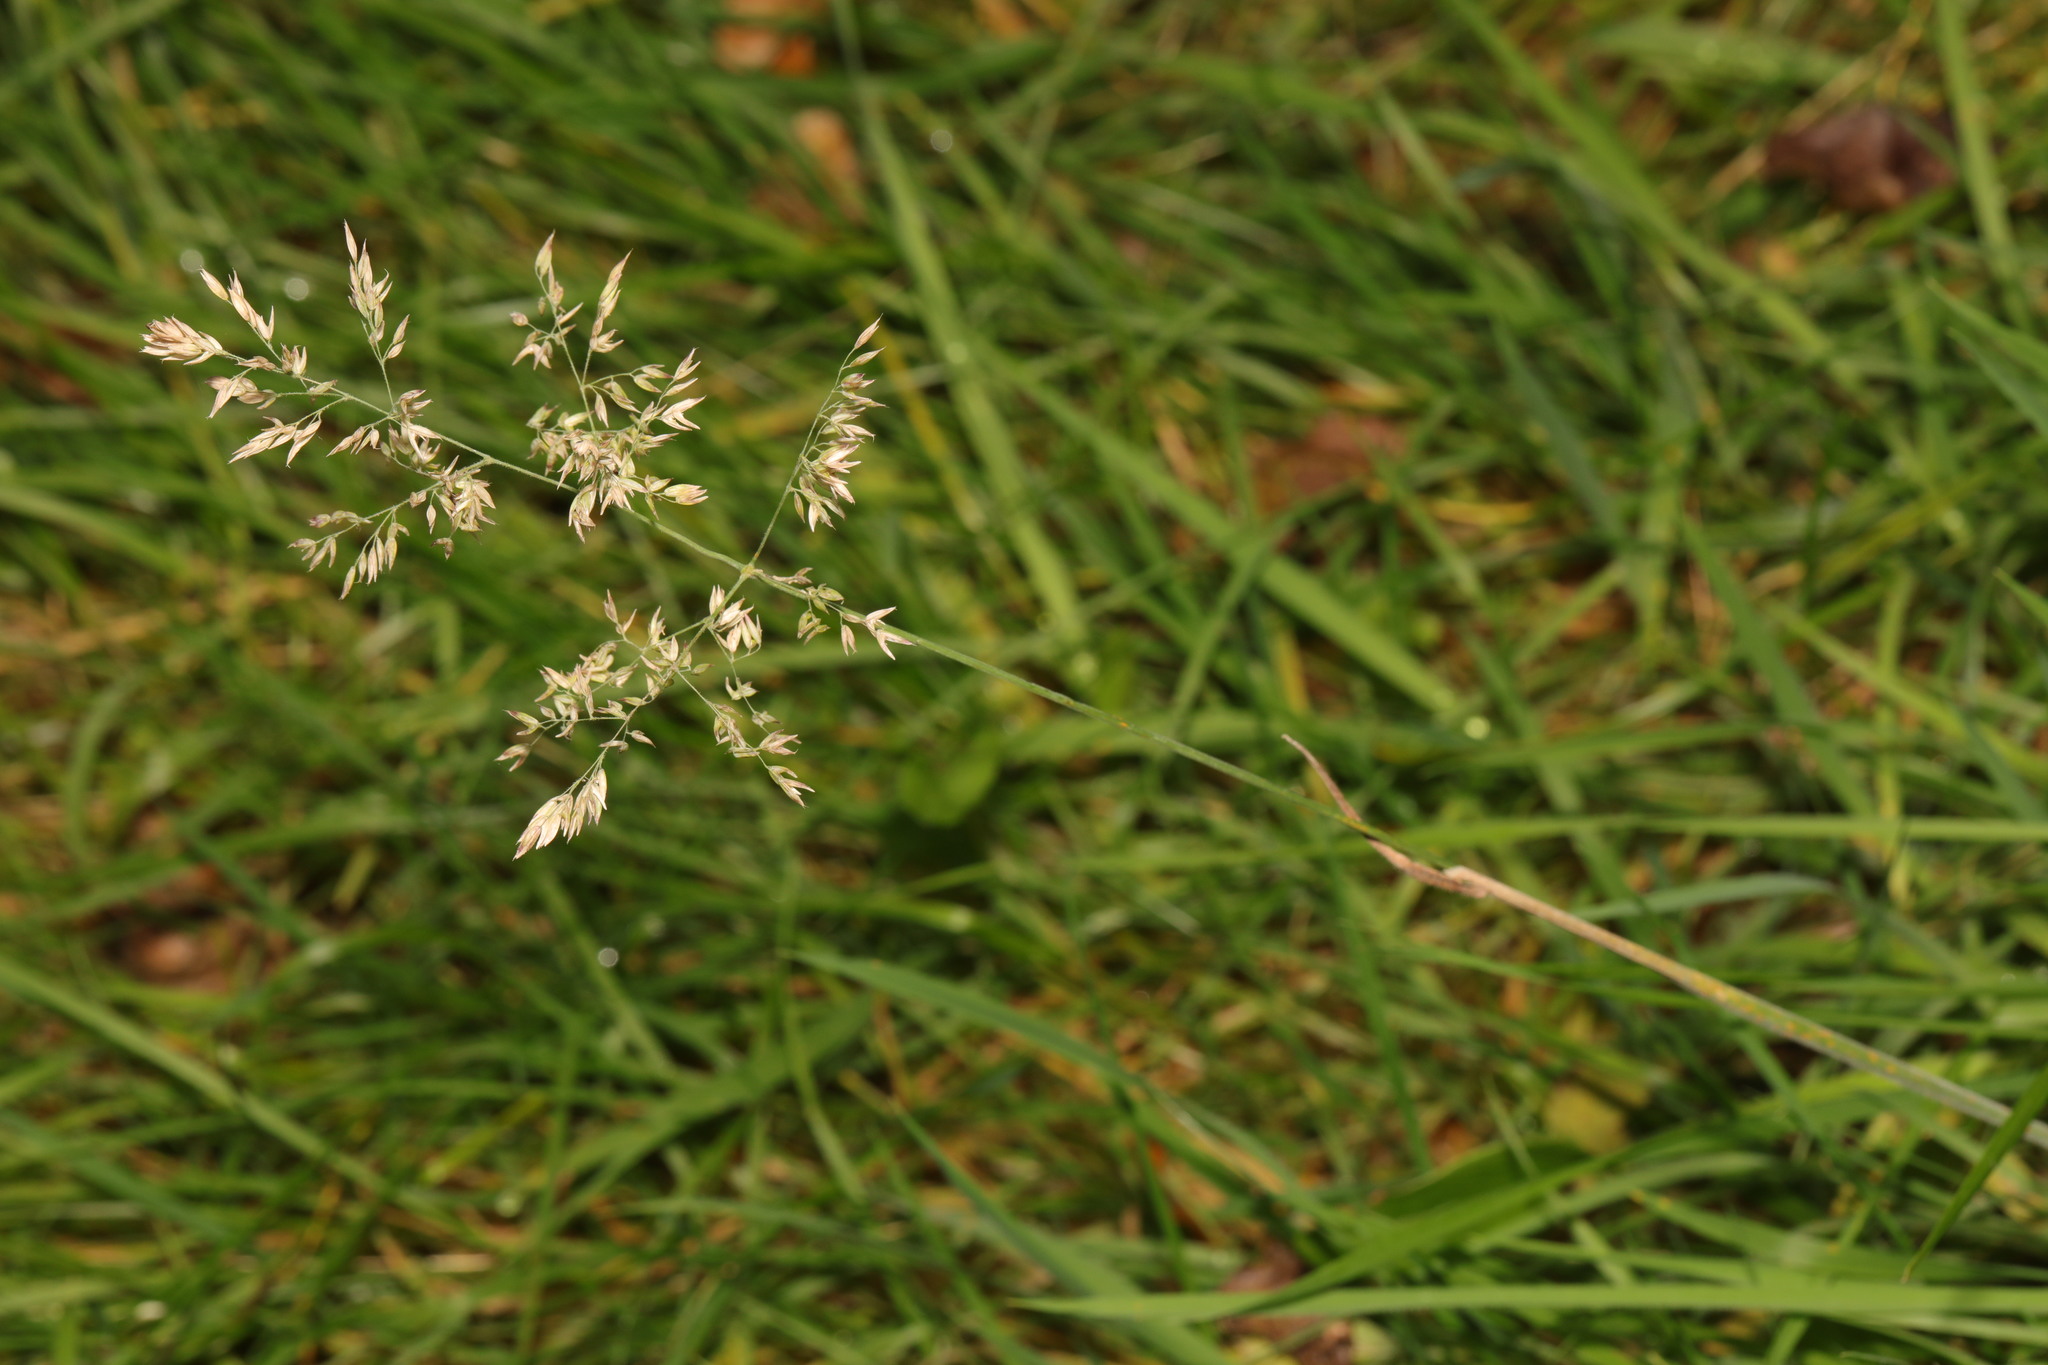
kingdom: Plantae
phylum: Tracheophyta
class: Liliopsida
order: Poales
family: Poaceae
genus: Holcus
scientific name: Holcus lanatus
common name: Yorkshire-fog
